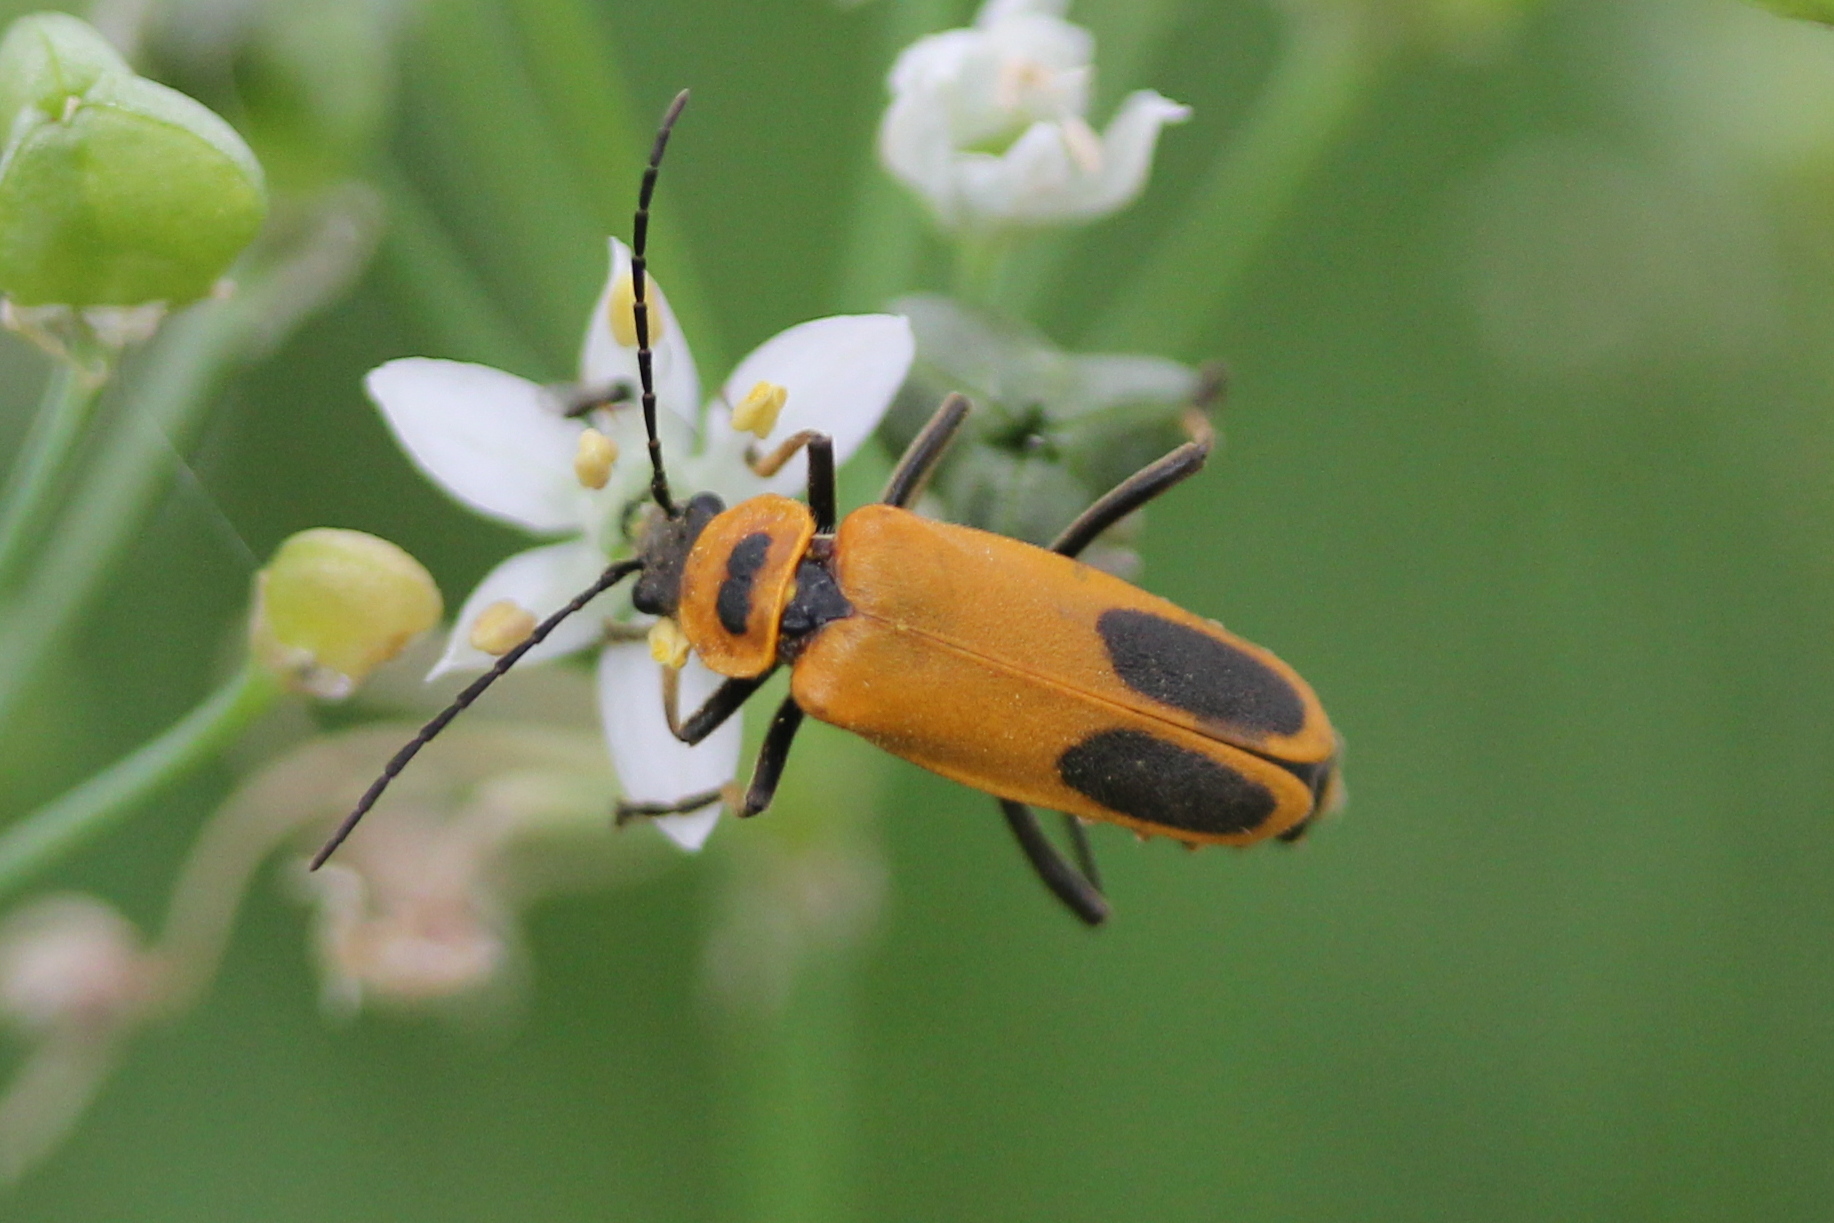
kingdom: Animalia
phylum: Arthropoda
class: Insecta
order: Coleoptera
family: Cantharidae
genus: Chauliognathus
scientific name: Chauliognathus pensylvanicus
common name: Goldenrod soldier beetle
